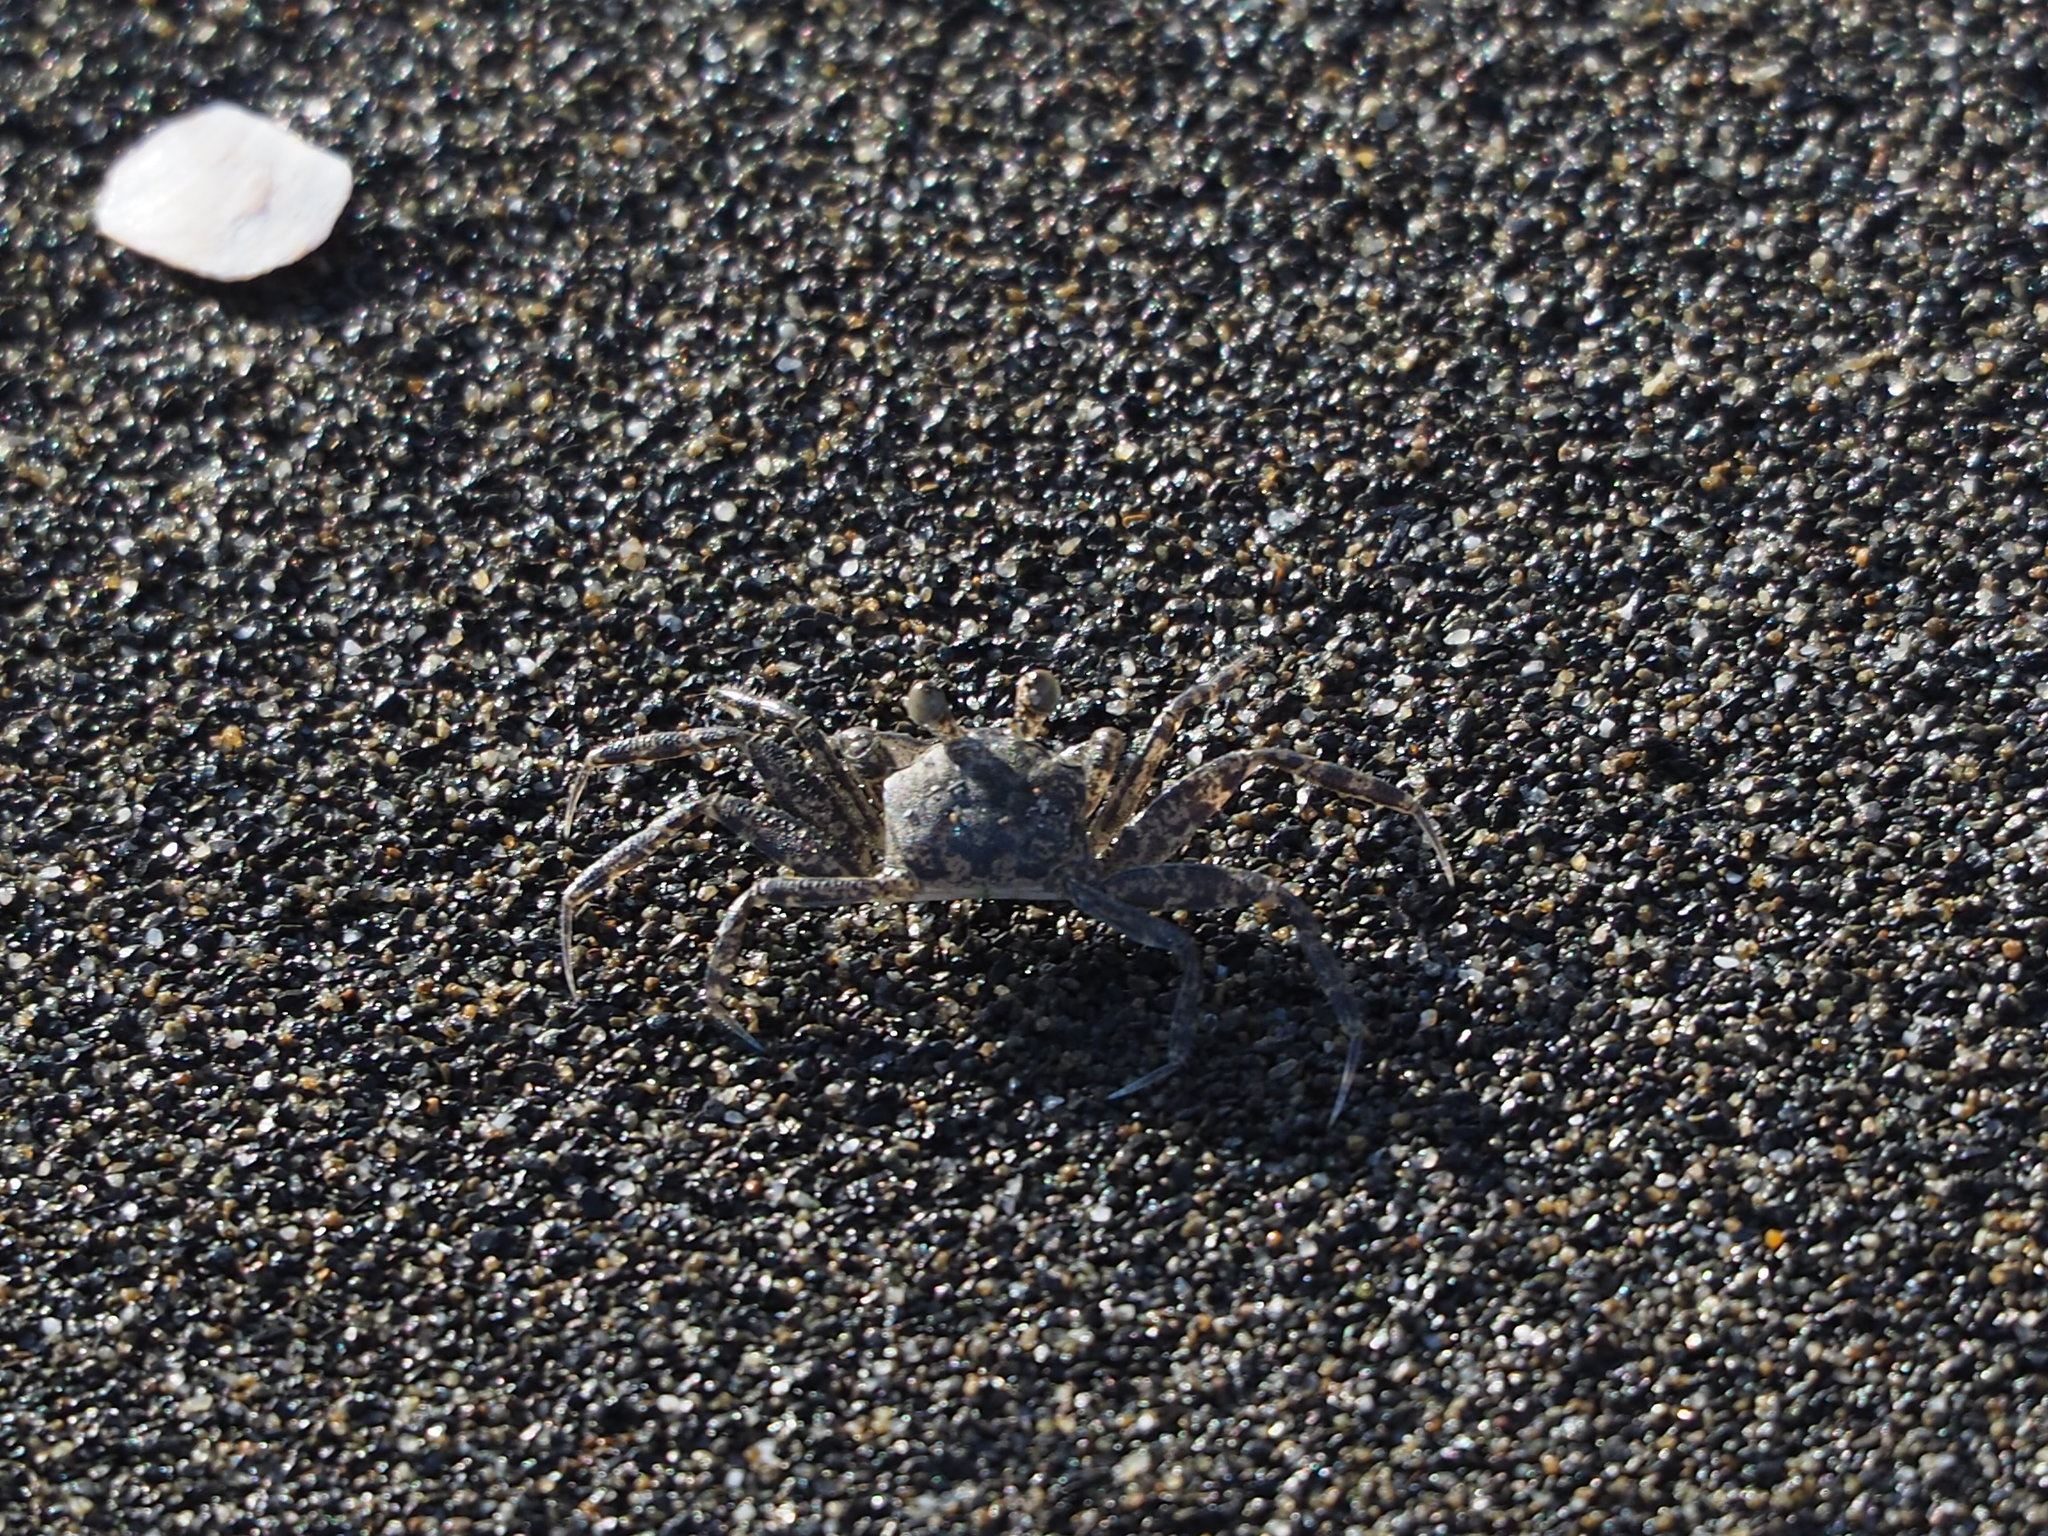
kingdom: Animalia
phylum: Arthropoda
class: Malacostraca
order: Decapoda
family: Ocypodidae
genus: Ocypode
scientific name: Ocypode ceratophthalmus
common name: Indo-pacific ghost crab
